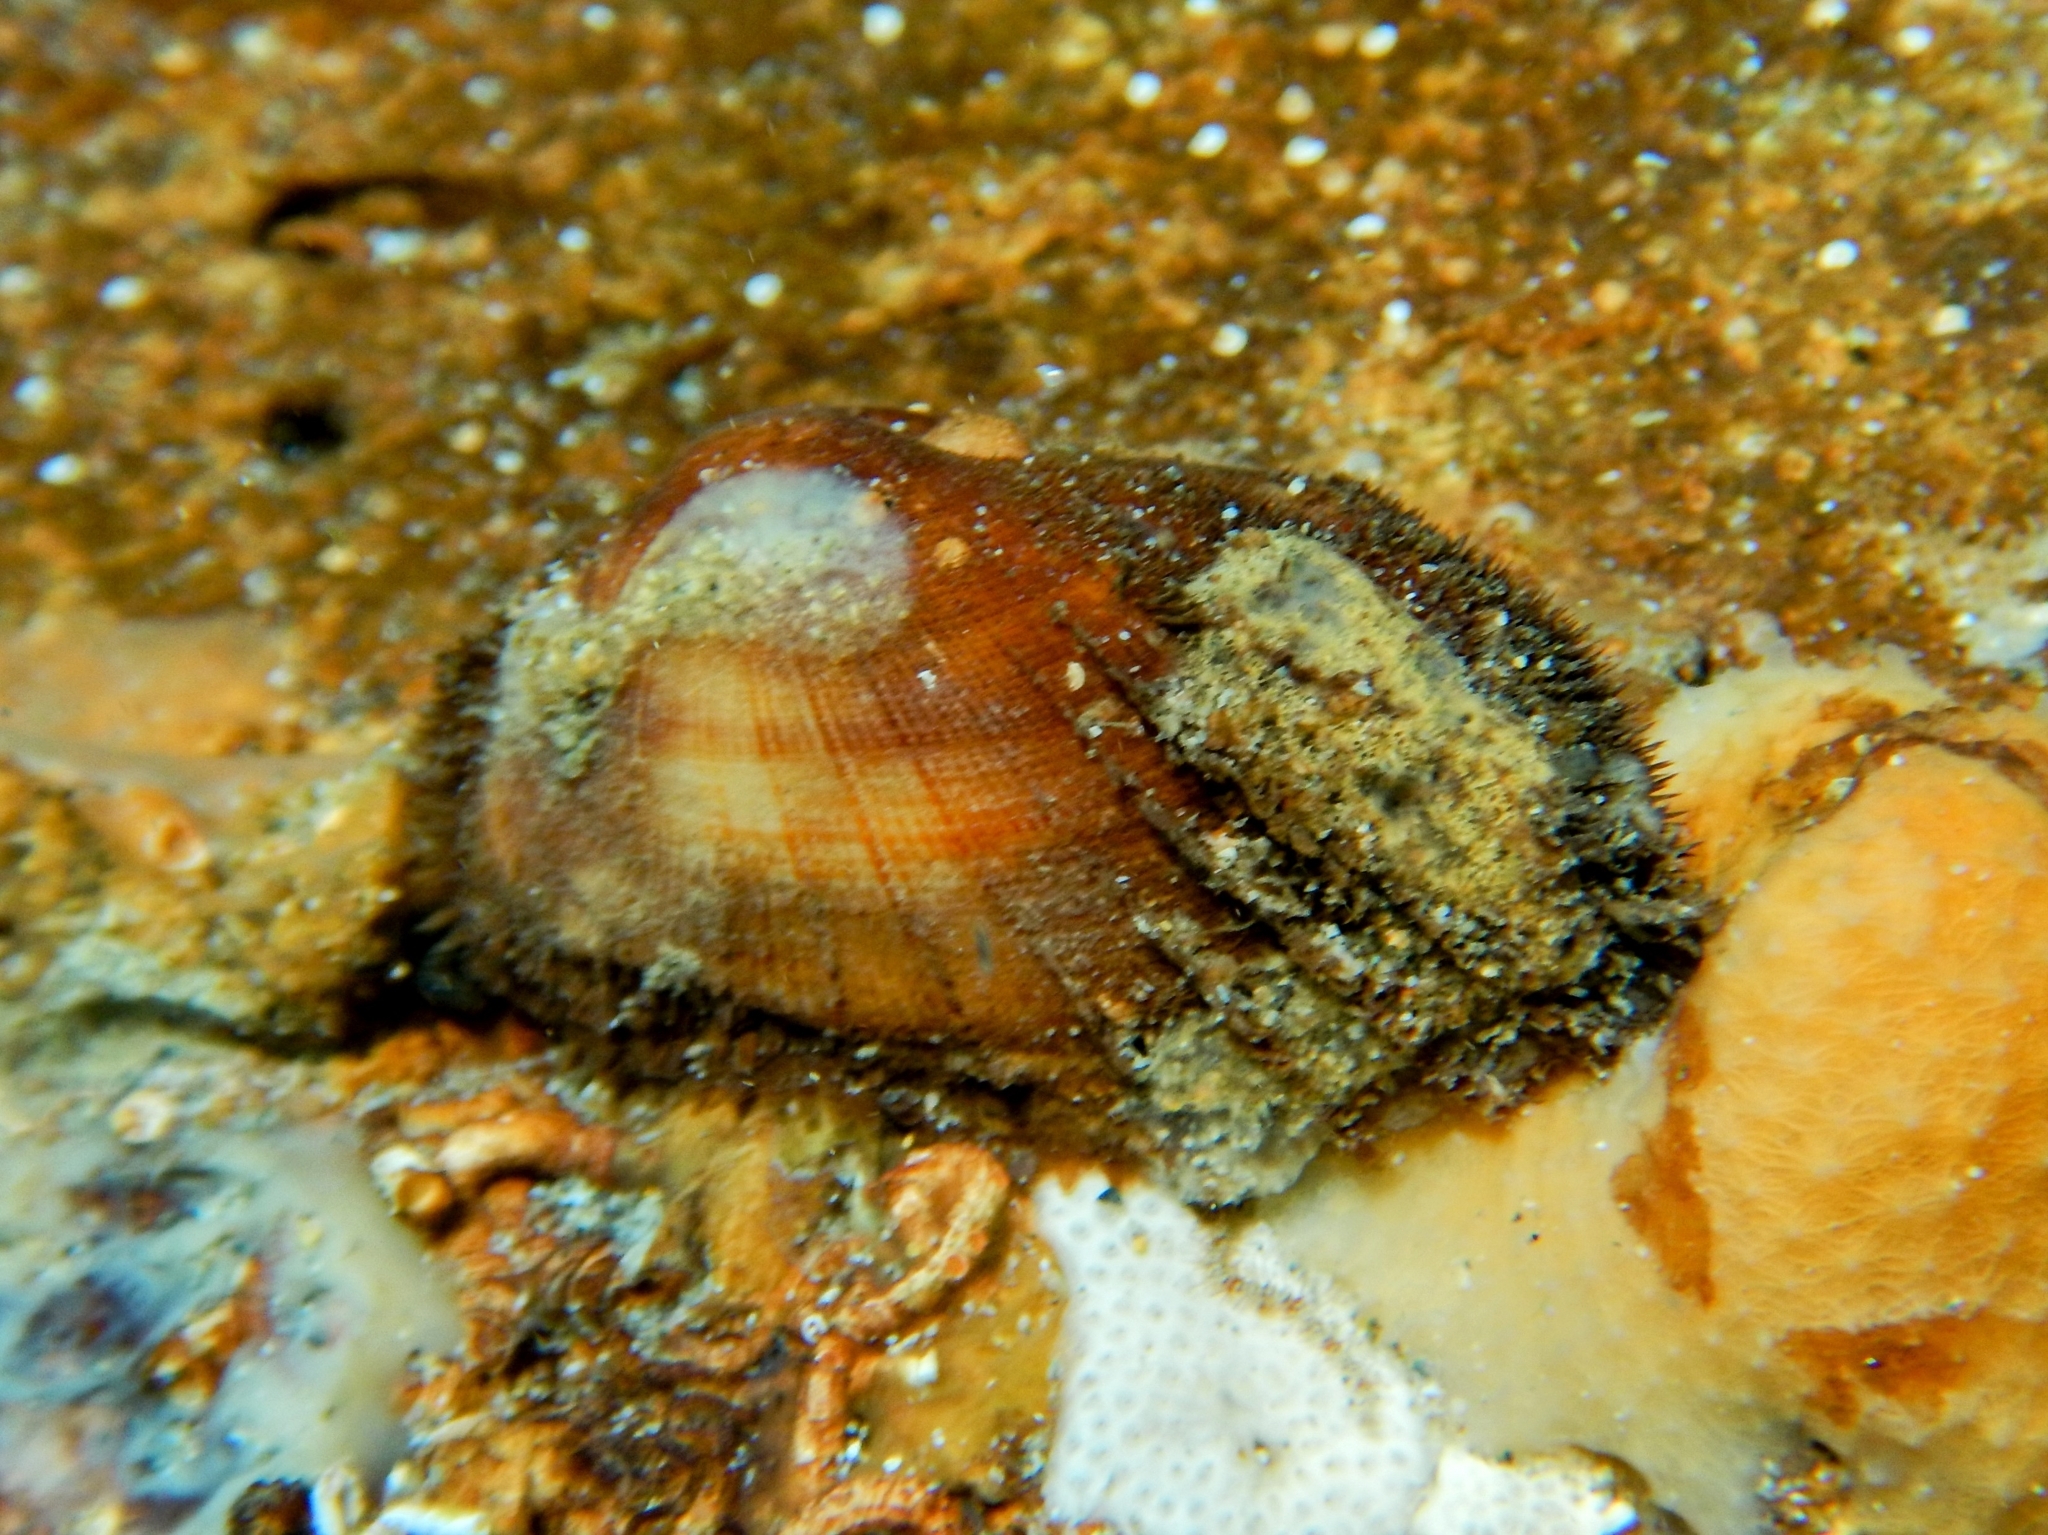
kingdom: Animalia
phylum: Mollusca
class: Bivalvia
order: Arcida
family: Arcidae
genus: Barbatia
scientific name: Barbatia barbata
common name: Bearded ark
